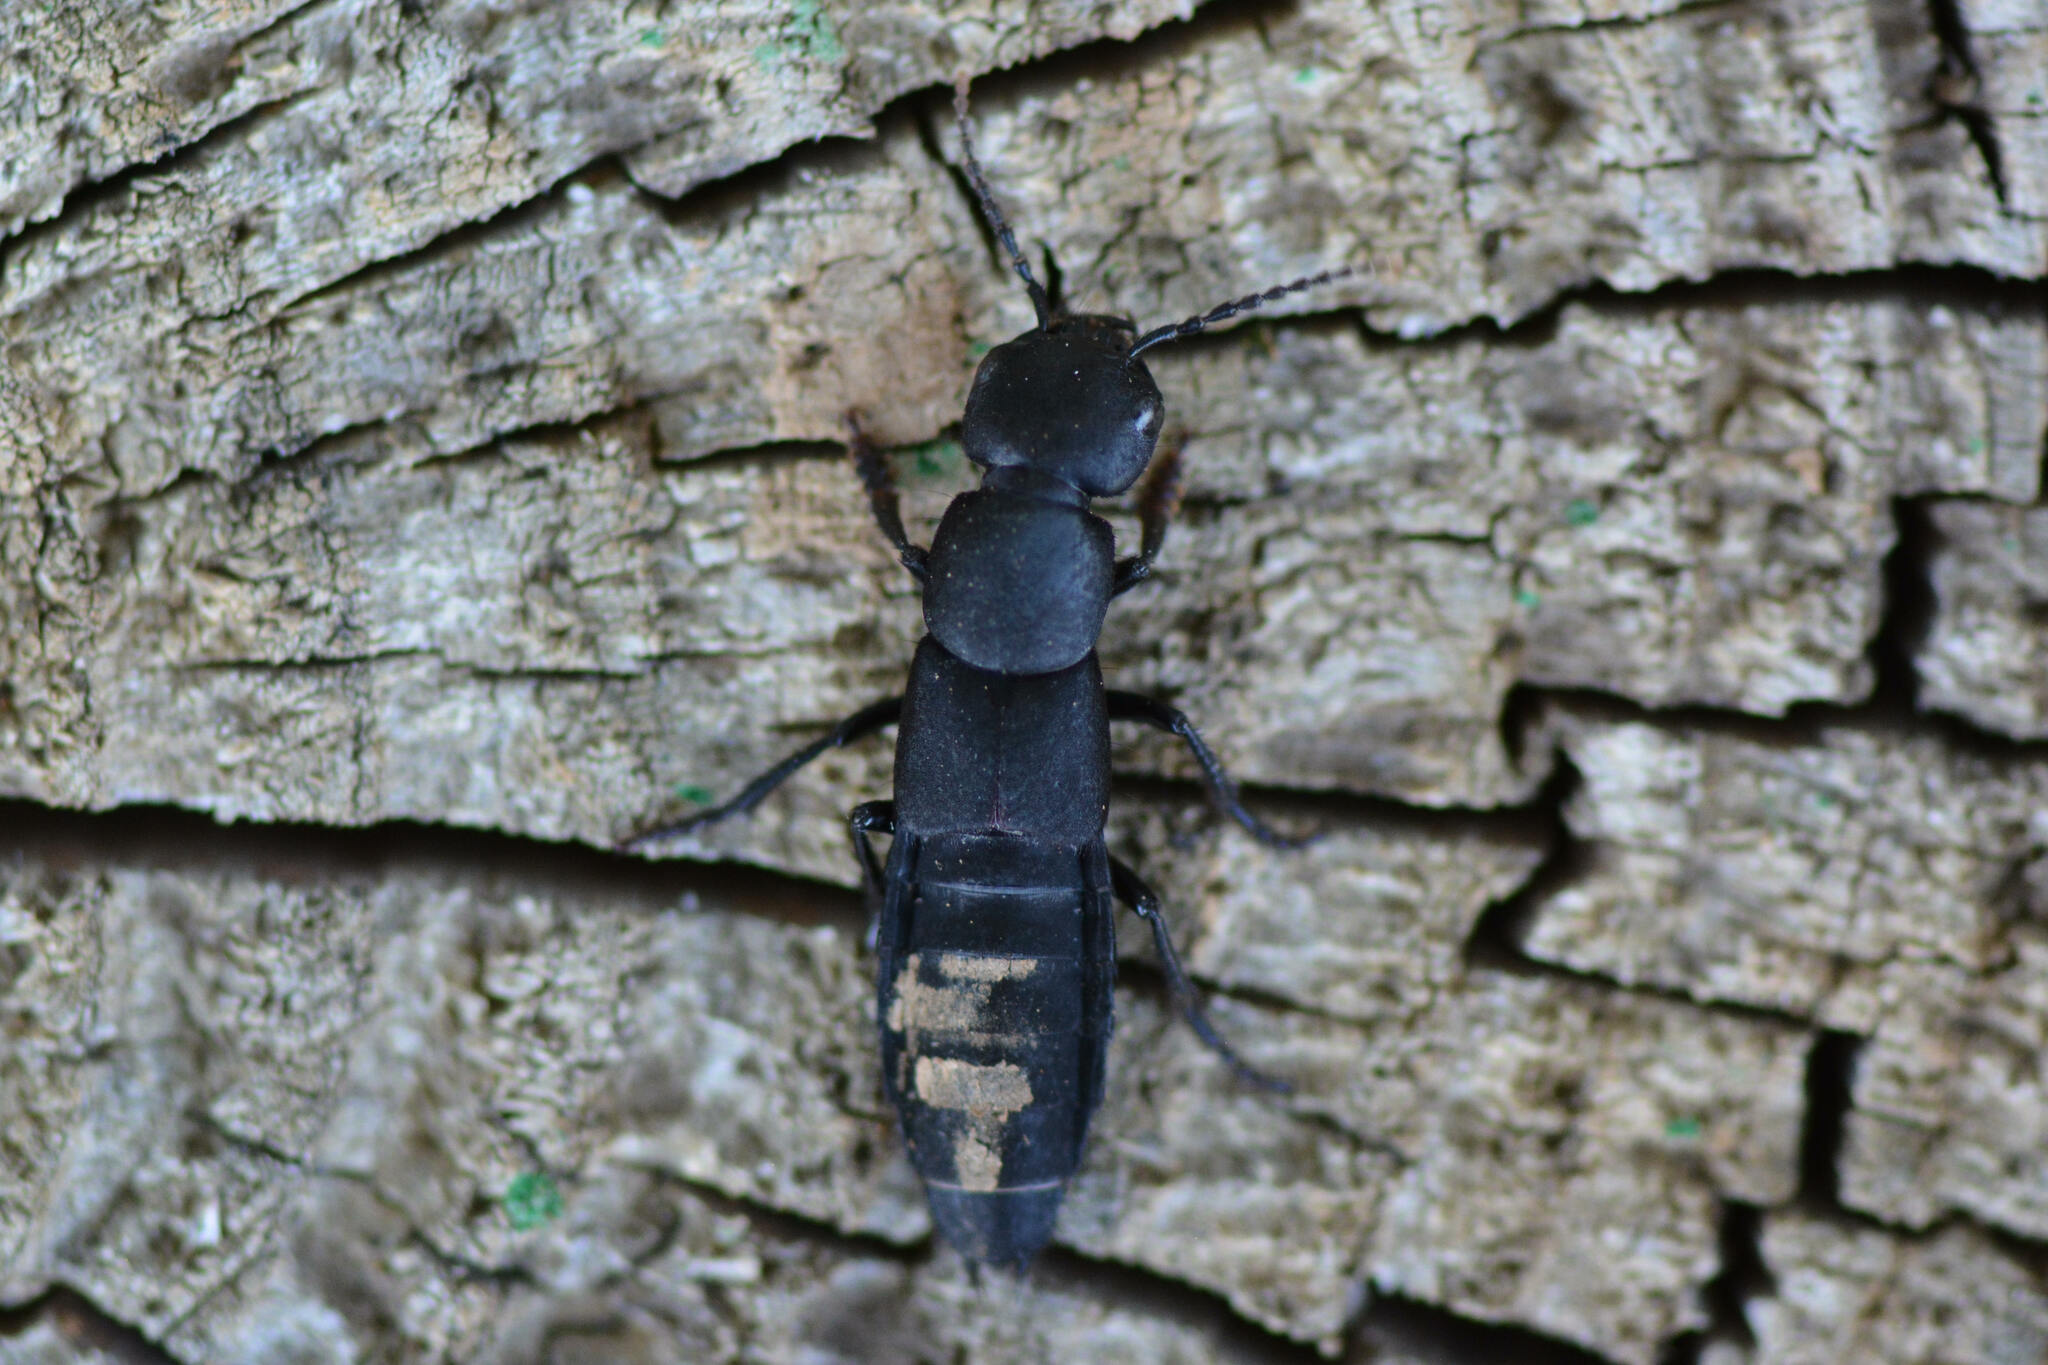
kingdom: Animalia
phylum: Arthropoda
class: Insecta
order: Coleoptera
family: Staphylinidae
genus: Ocypus
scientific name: Ocypus olens
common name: Devil's coach-horse
